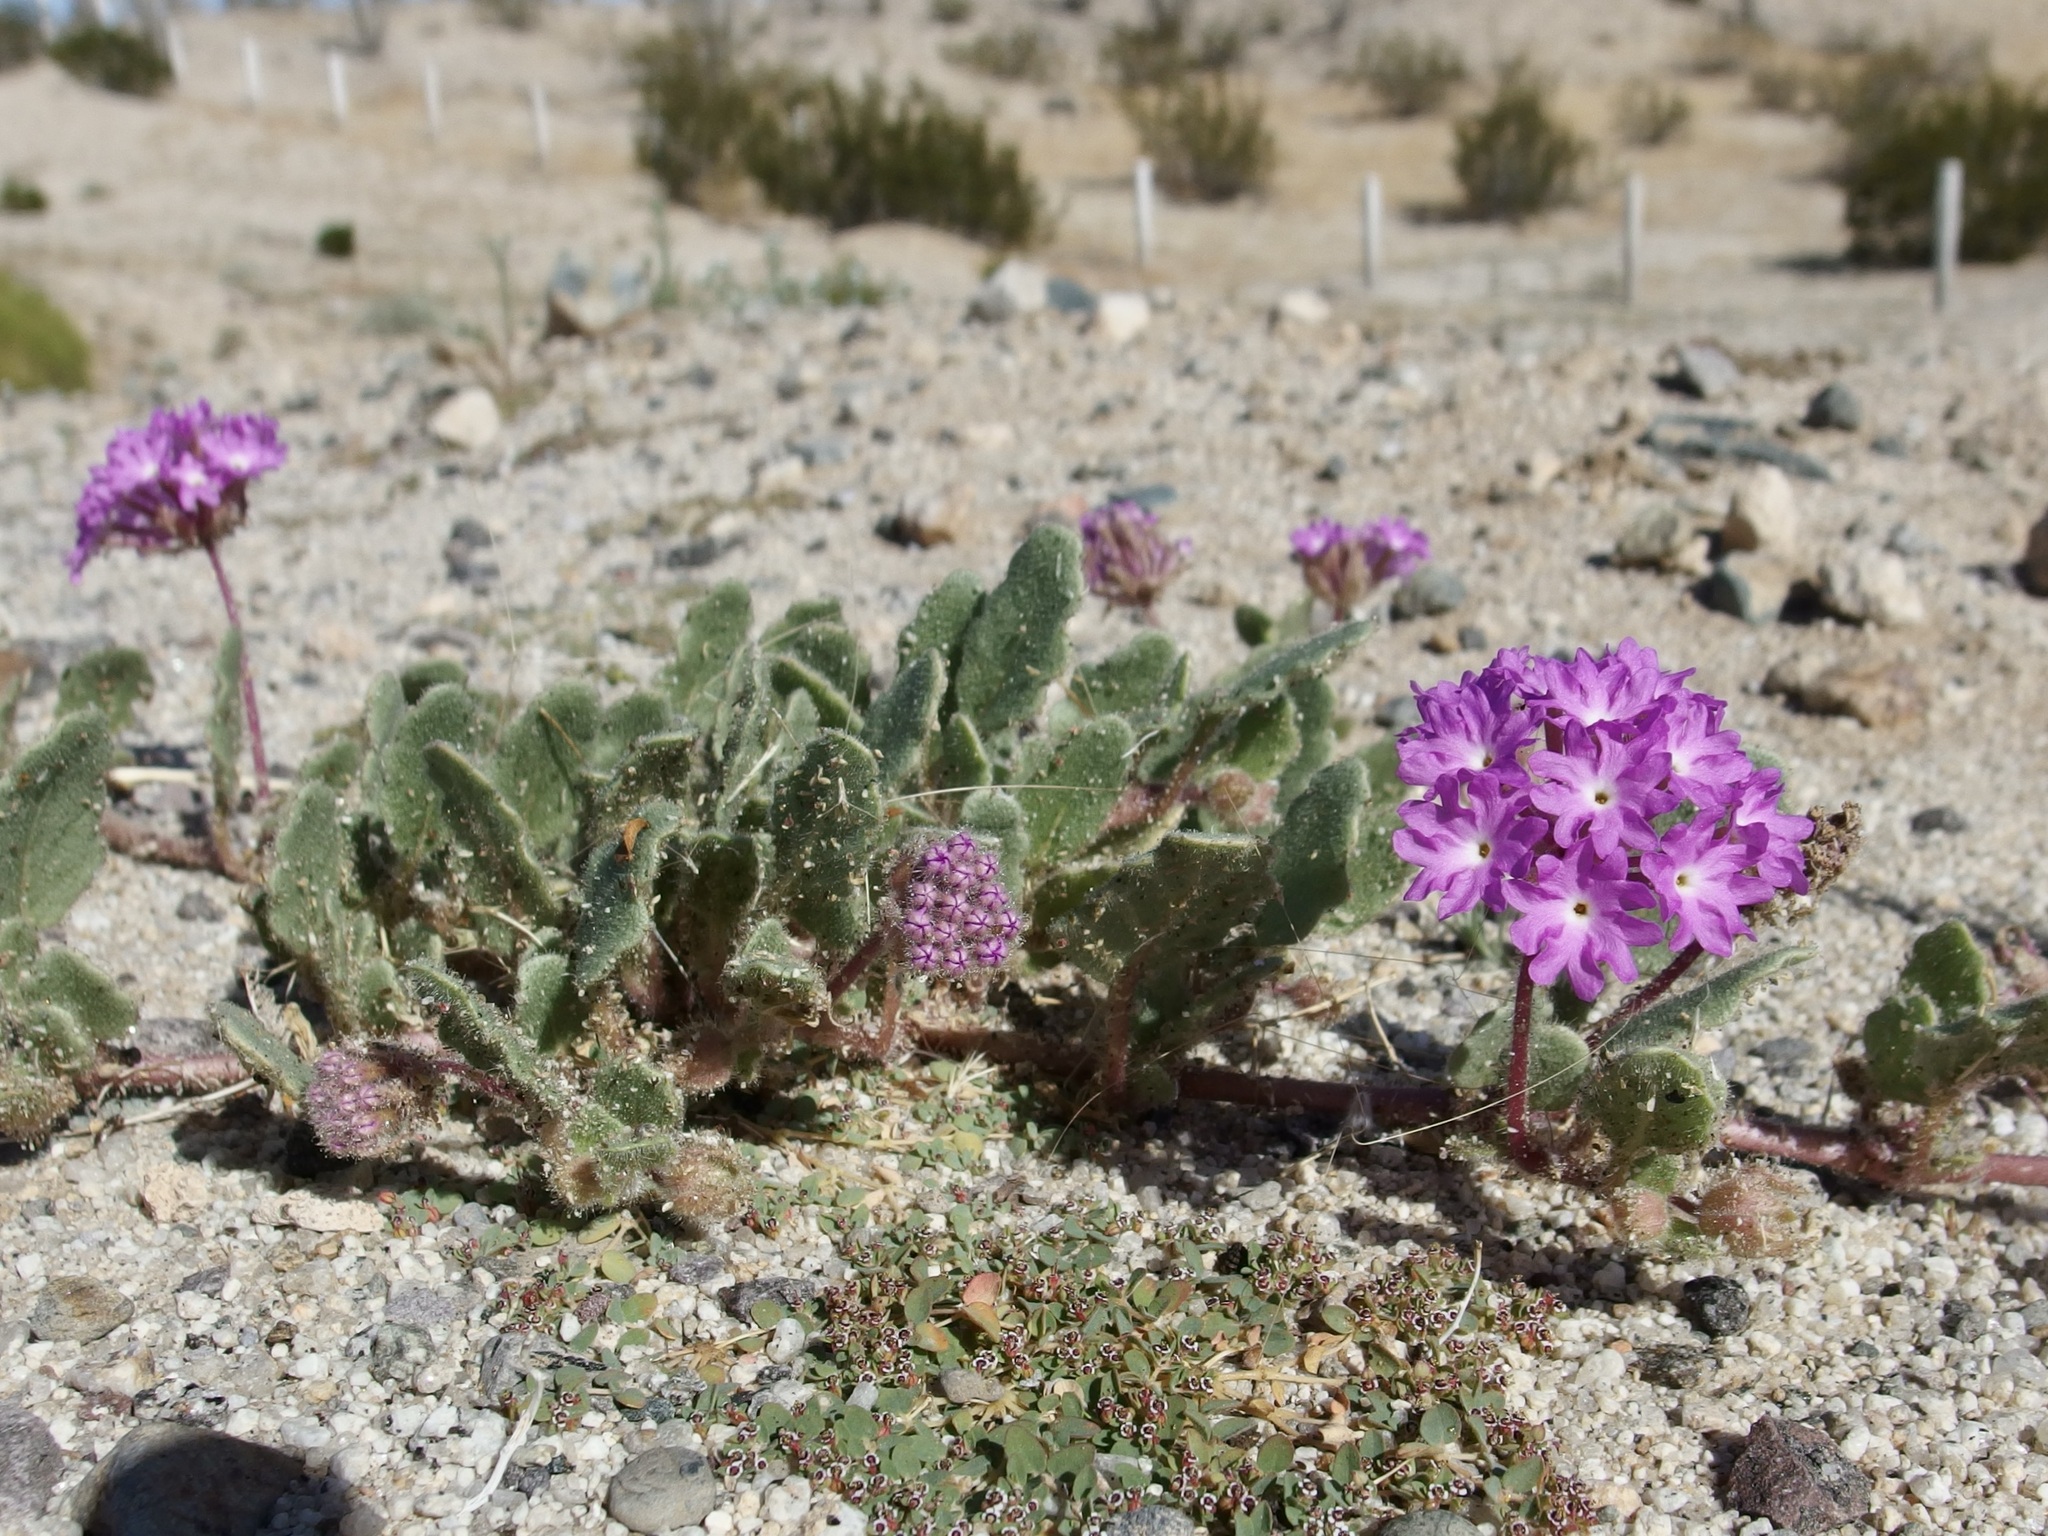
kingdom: Plantae
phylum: Tracheophyta
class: Magnoliopsida
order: Caryophyllales
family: Nyctaginaceae
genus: Abronia
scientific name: Abronia villosa
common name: Desert sand-verbena
